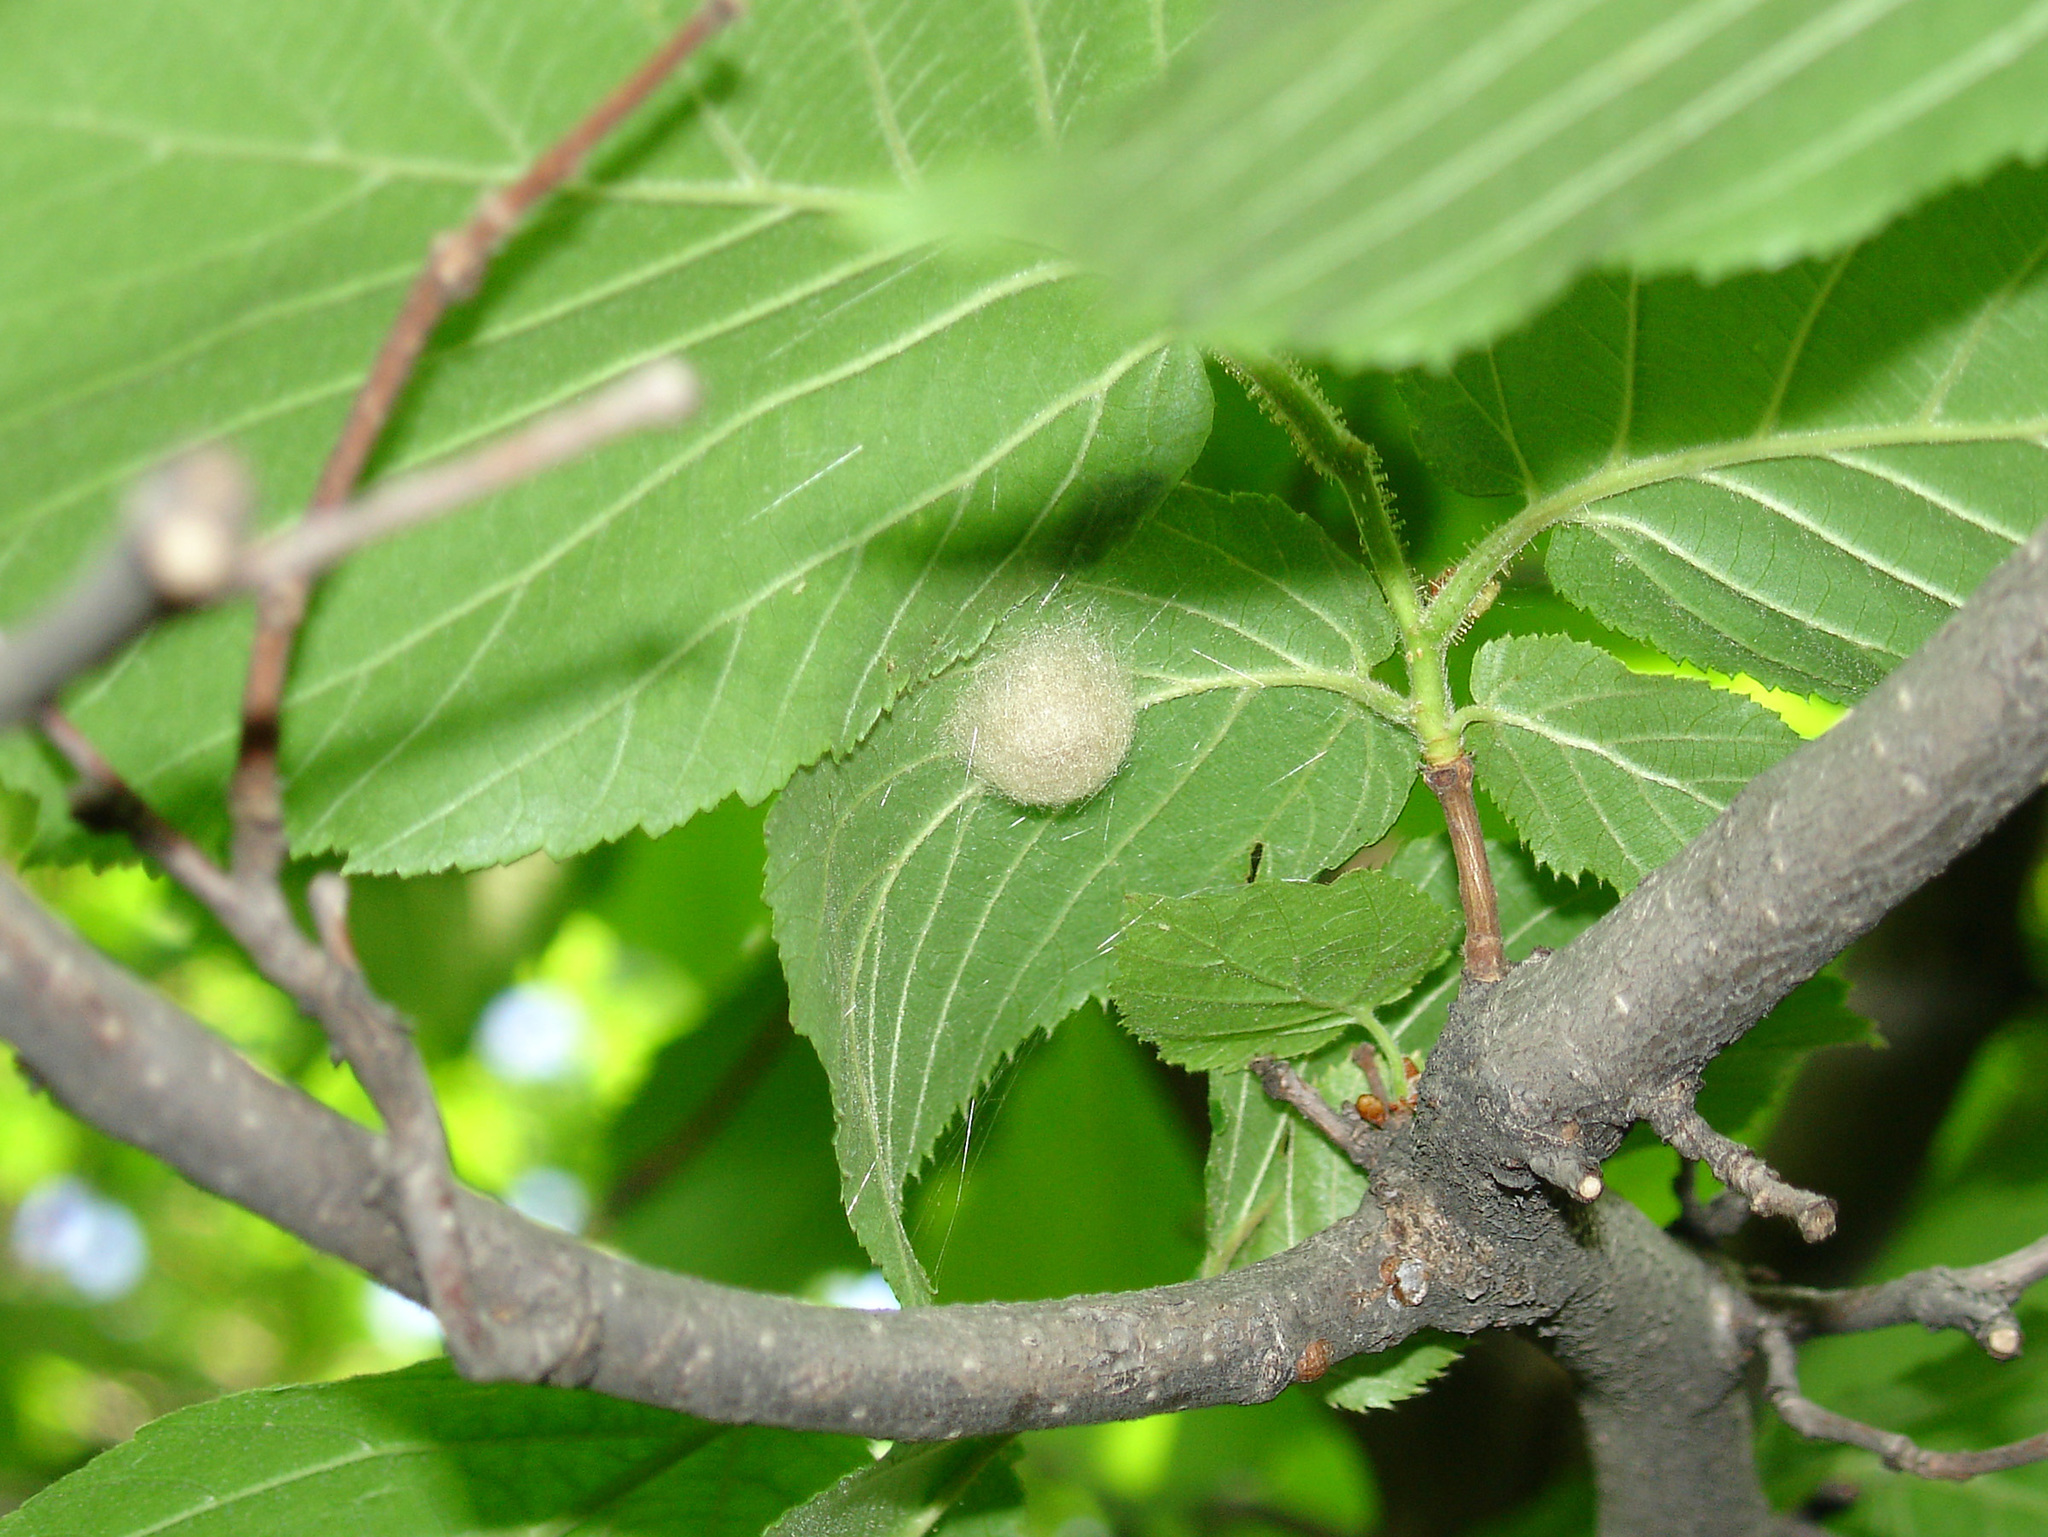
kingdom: Animalia
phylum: Arthropoda
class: Arachnida
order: Araneae
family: Araneidae
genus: Agalenatea
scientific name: Agalenatea redii
